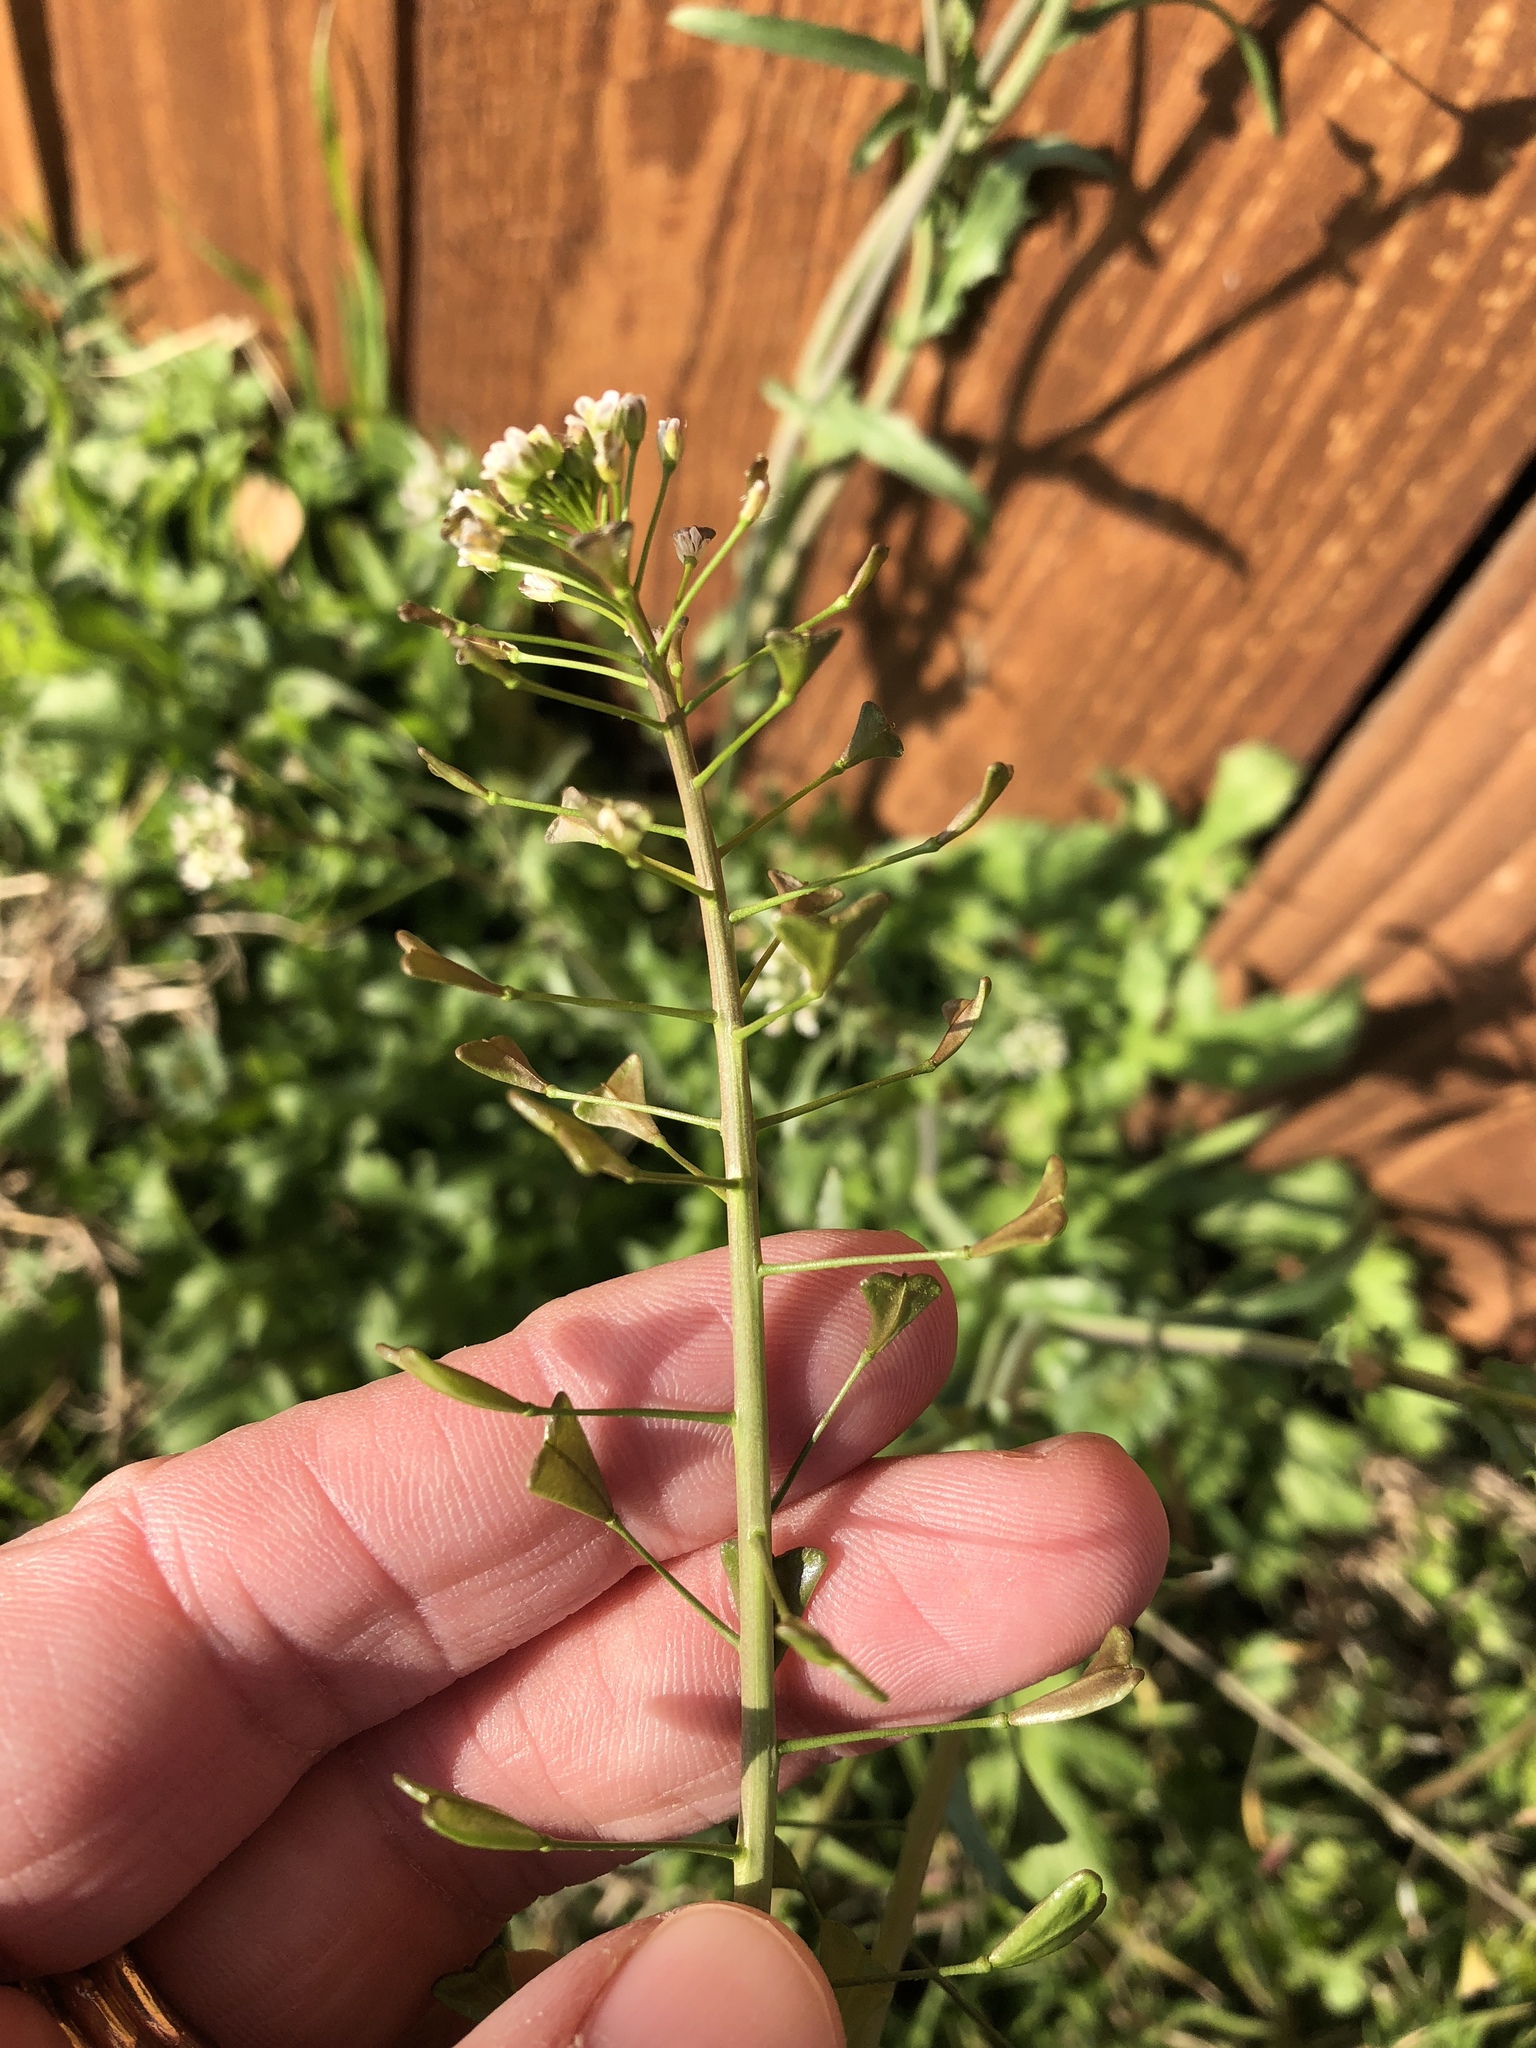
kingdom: Plantae
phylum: Tracheophyta
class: Magnoliopsida
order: Brassicales
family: Brassicaceae
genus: Capsella
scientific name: Capsella bursa-pastoris
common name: Shepherd's purse
